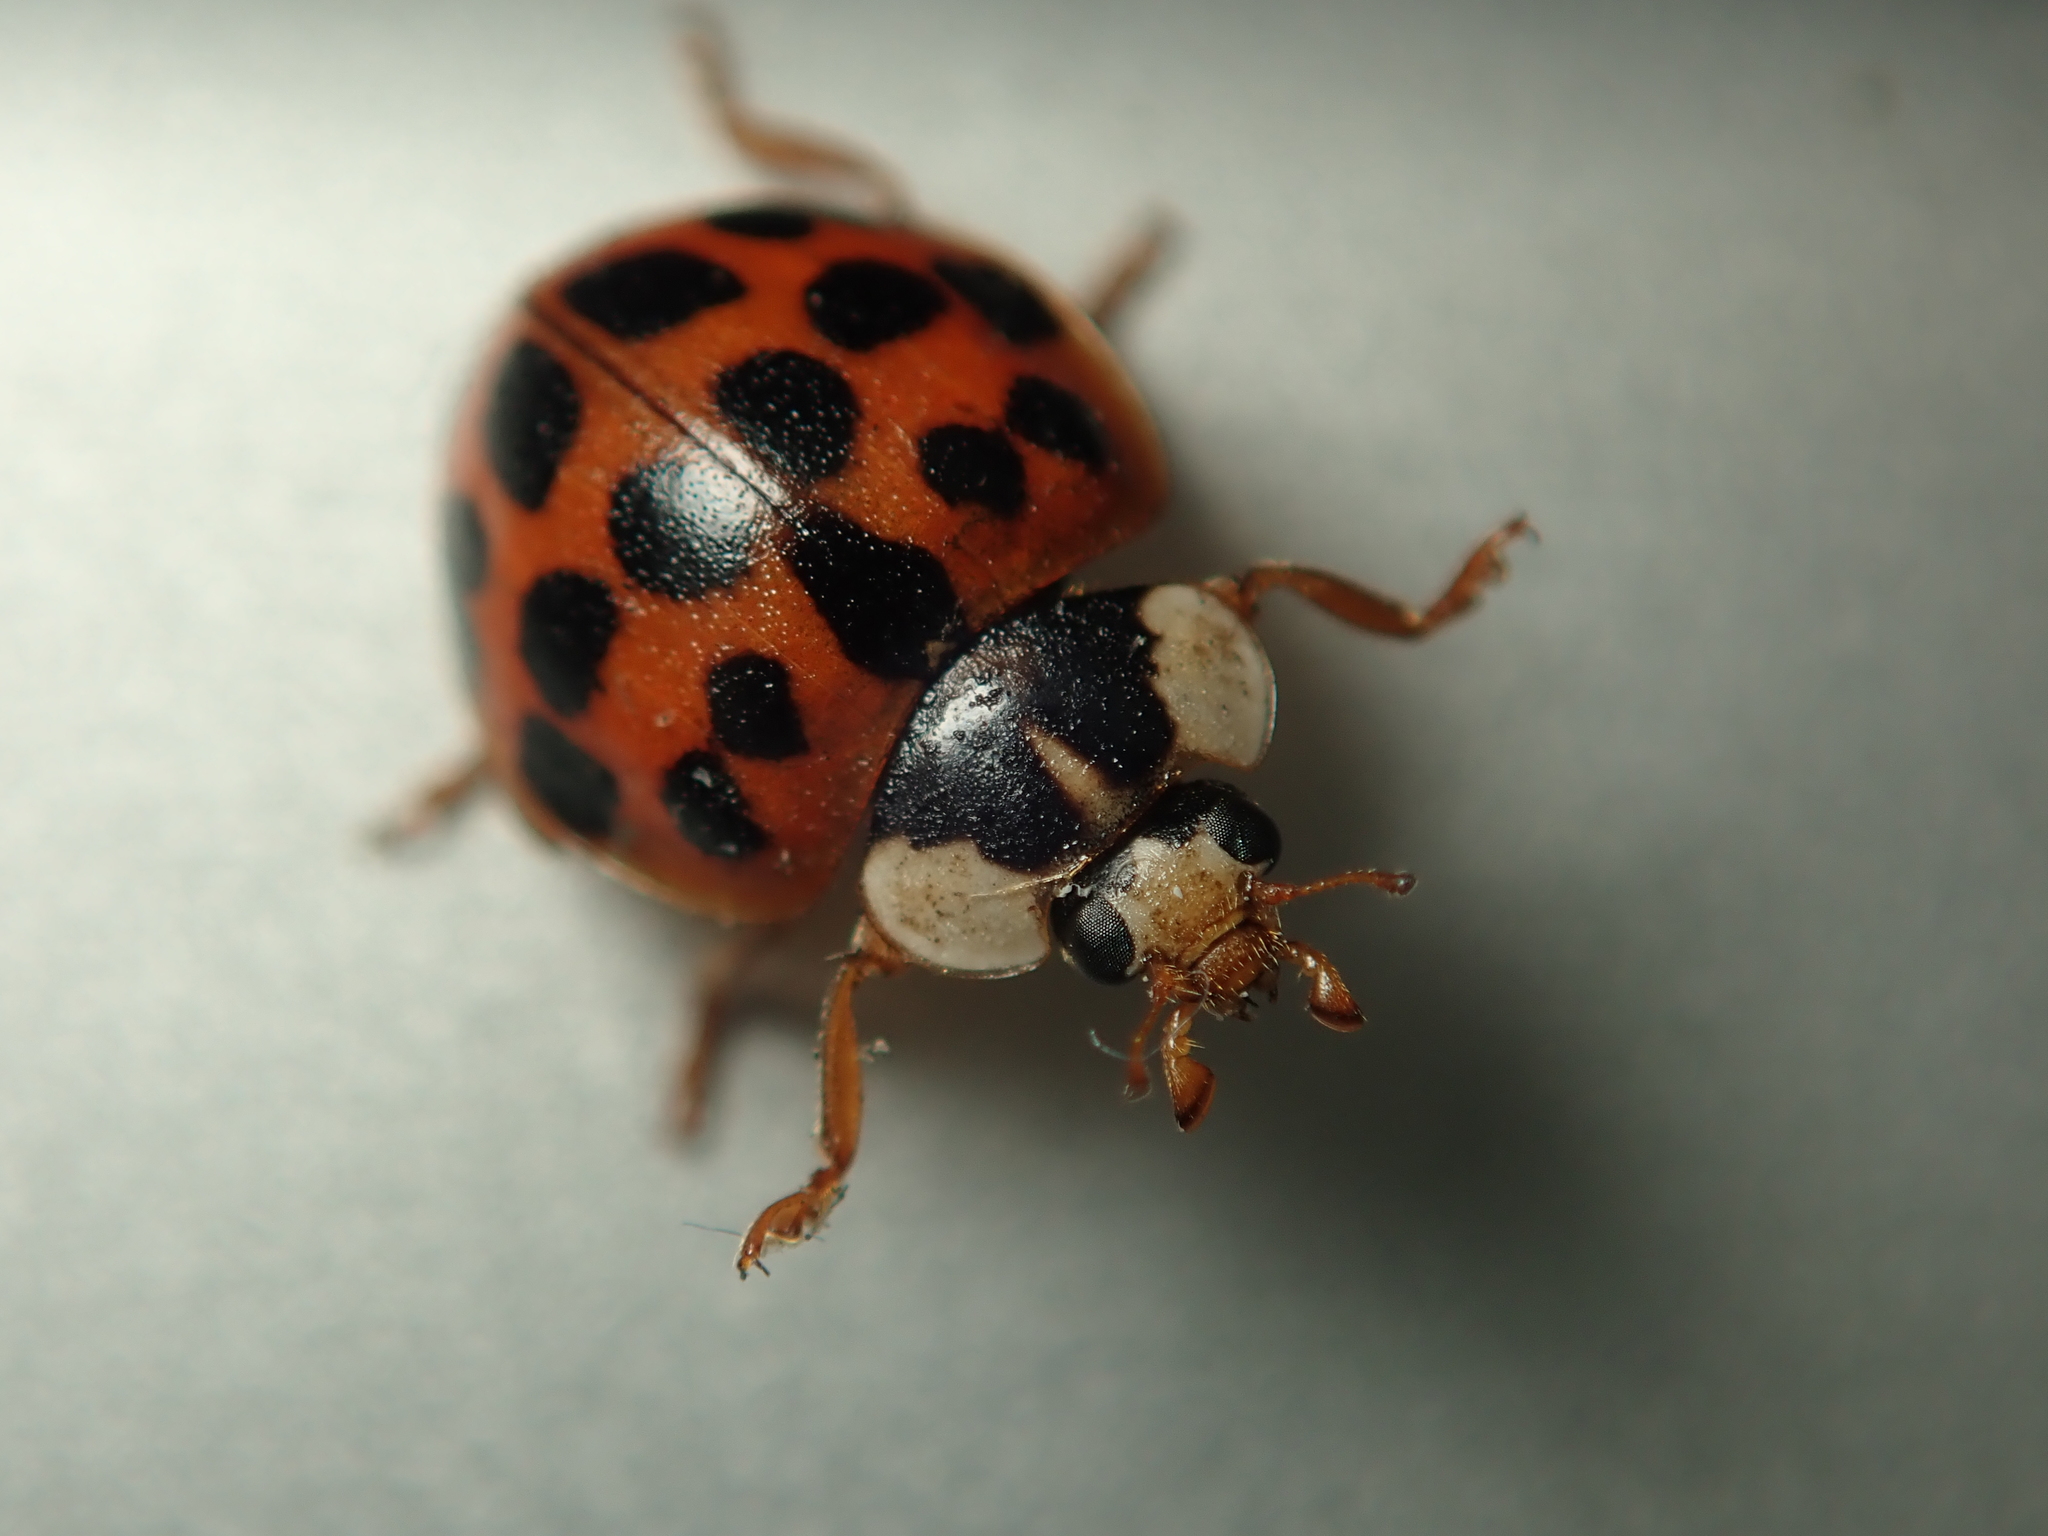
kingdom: Animalia
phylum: Arthropoda
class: Insecta
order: Coleoptera
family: Coccinellidae
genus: Harmonia
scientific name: Harmonia axyridis
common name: Harlequin ladybird
